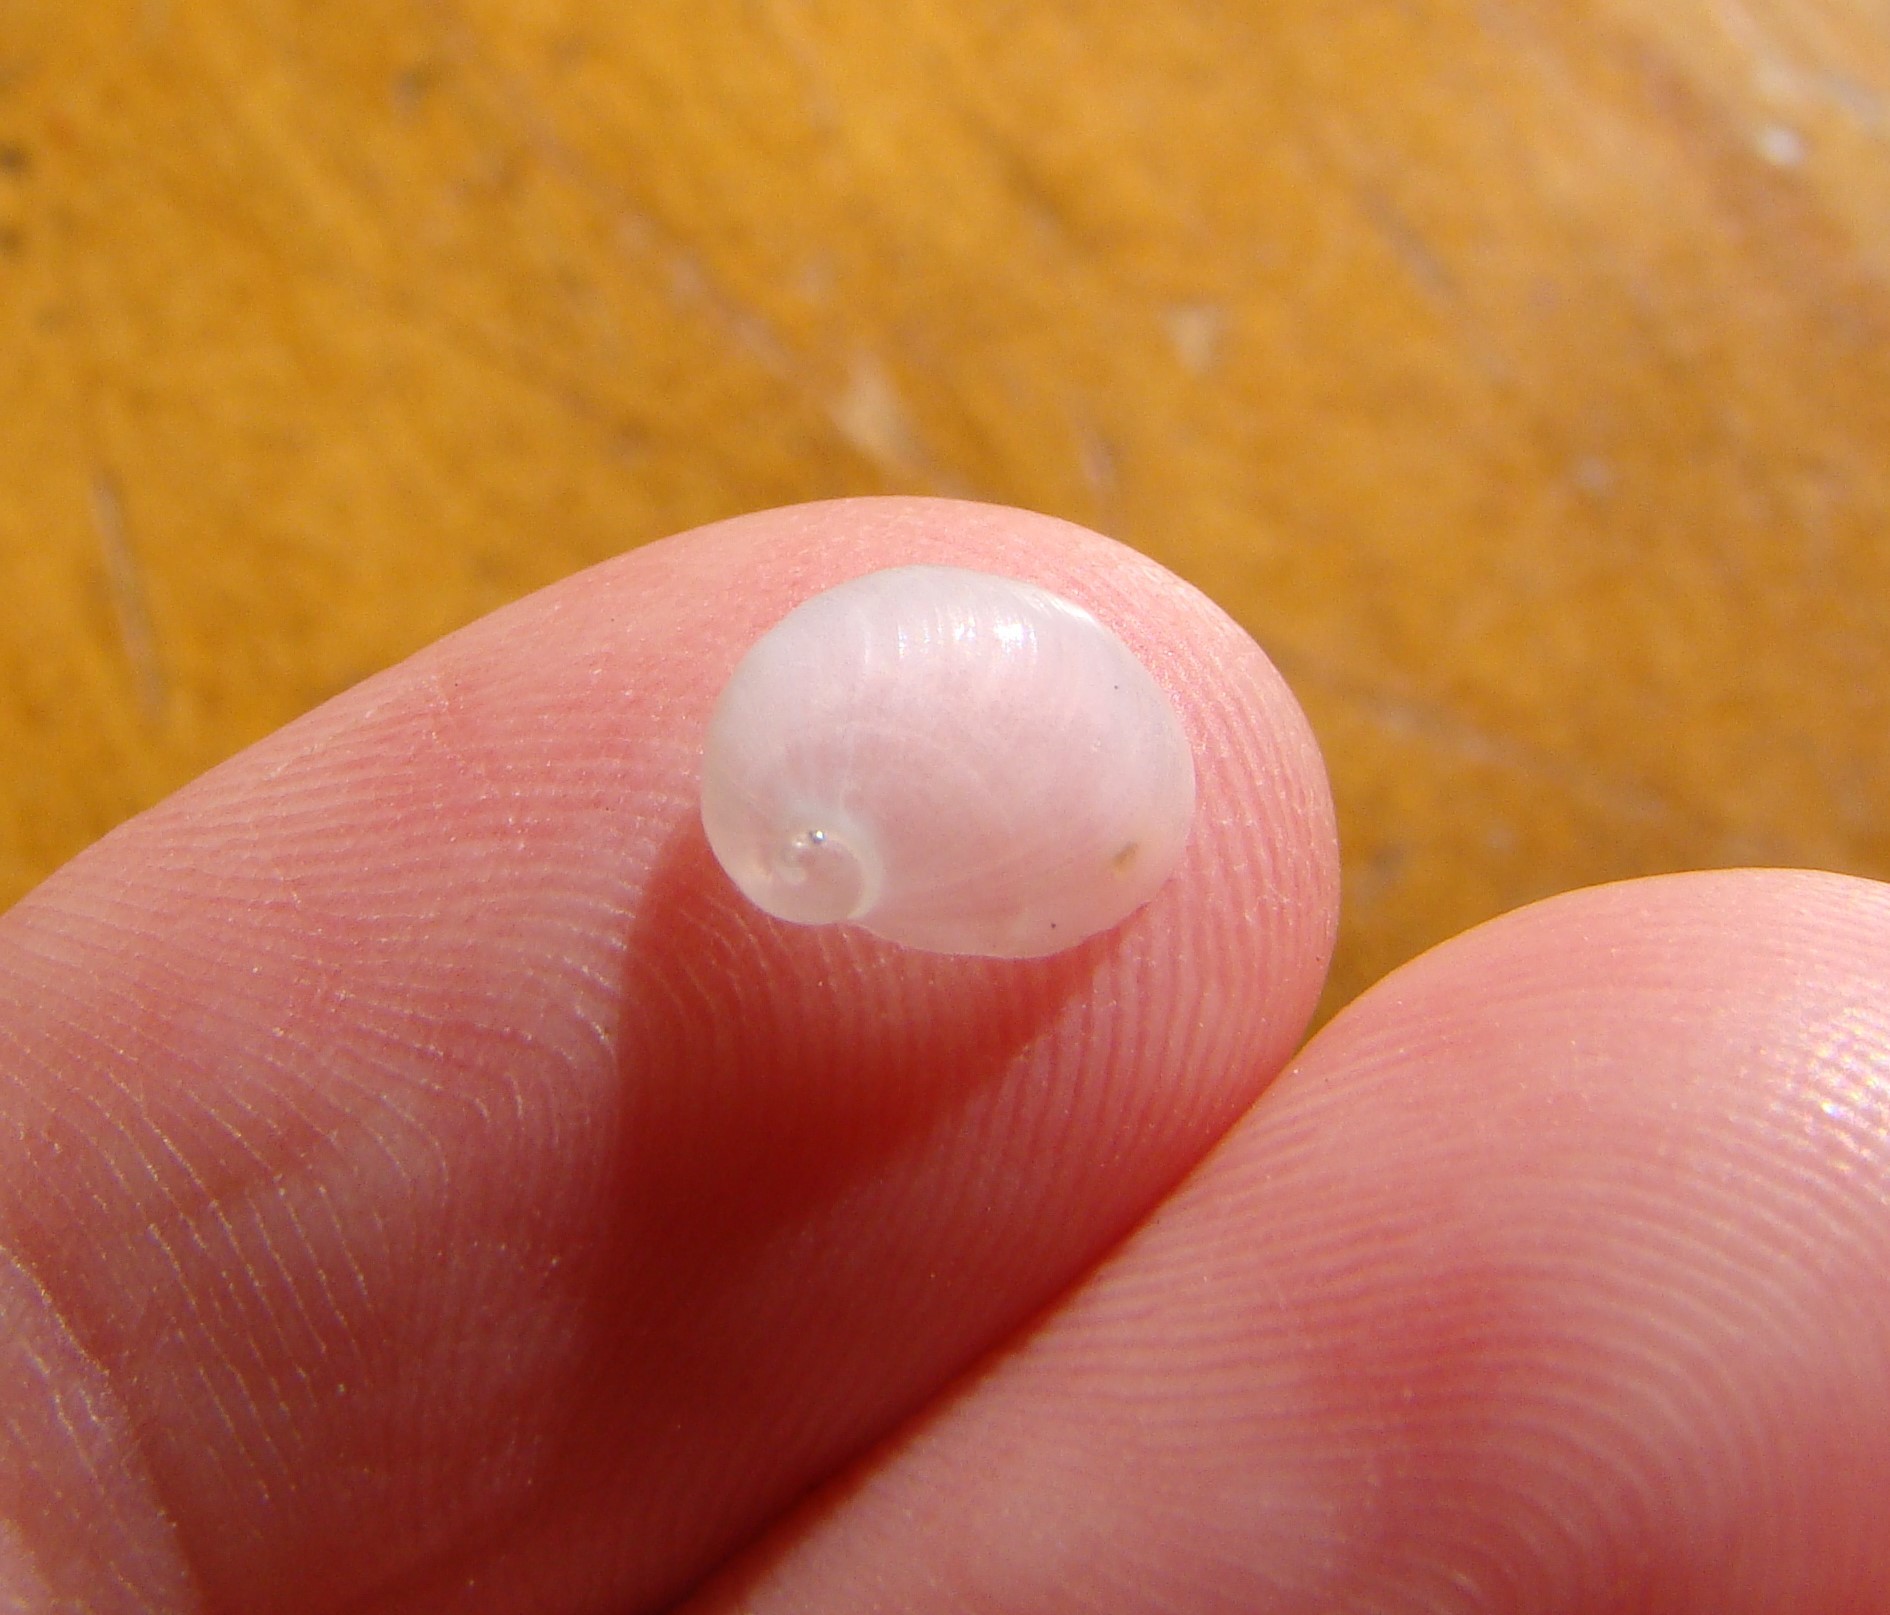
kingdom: Animalia
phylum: Mollusca
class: Gastropoda
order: Littorinimorpha
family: Velutinidae
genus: Lamellaria
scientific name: Lamellaria ophione
